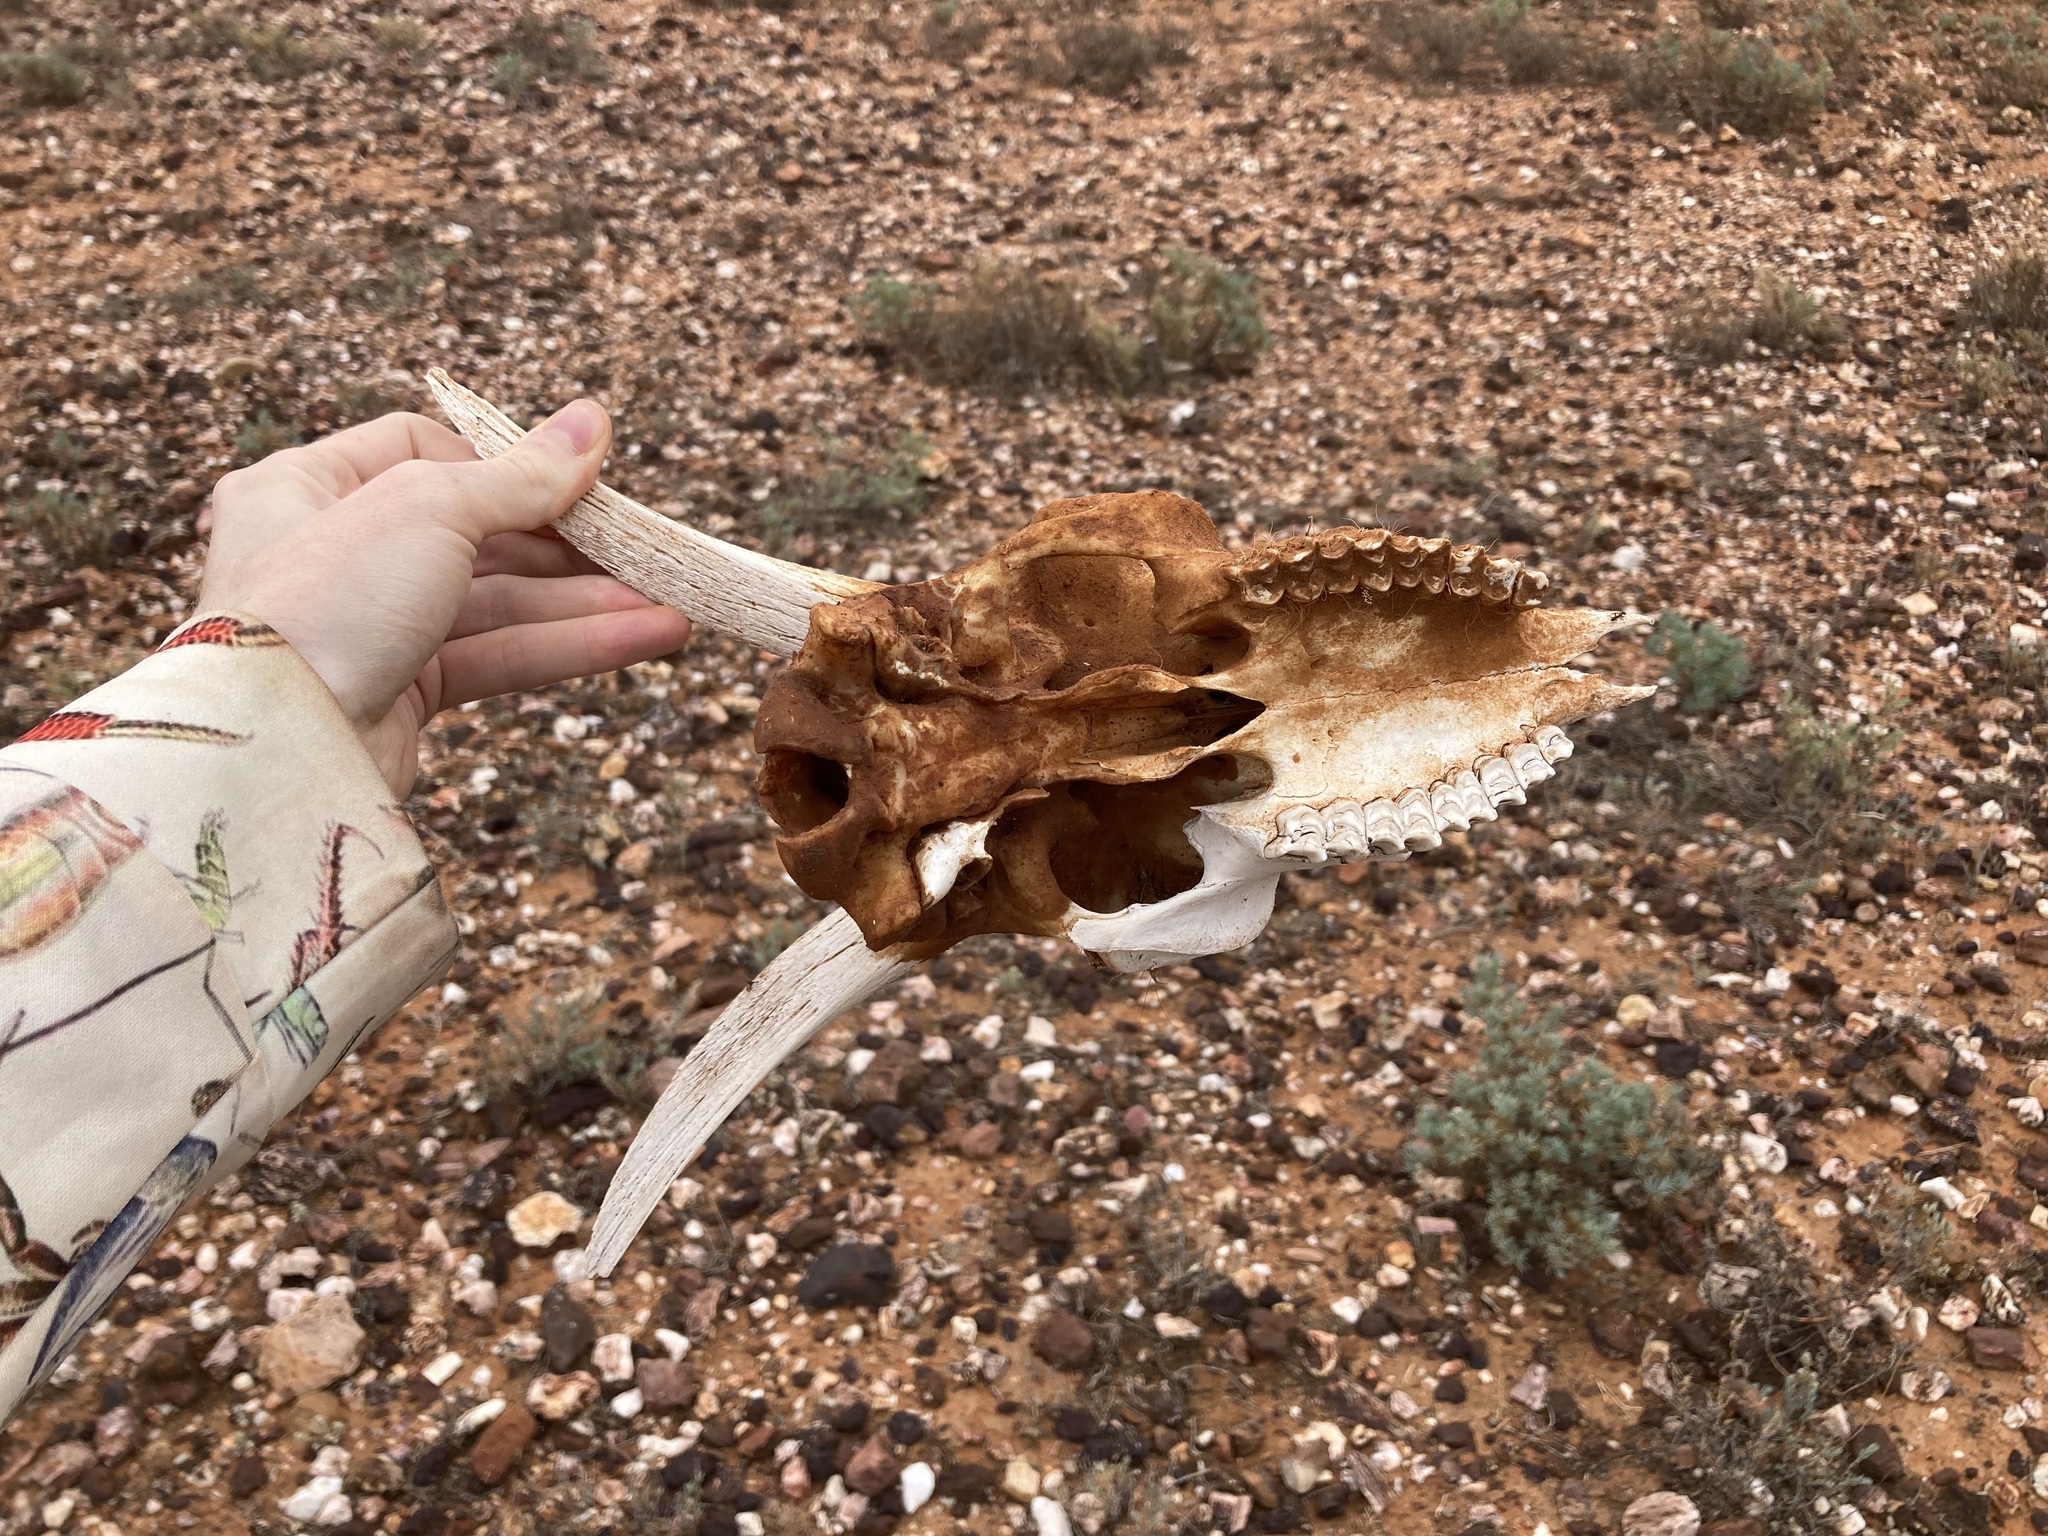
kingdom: Animalia
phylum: Chordata
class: Mammalia
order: Artiodactyla
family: Bovidae
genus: Capra
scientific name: Capra hircus
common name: Domestic goat
